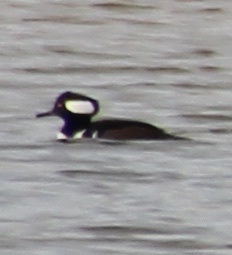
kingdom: Animalia
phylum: Chordata
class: Aves
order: Anseriformes
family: Anatidae
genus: Lophodytes
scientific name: Lophodytes cucullatus
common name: Hooded merganser
